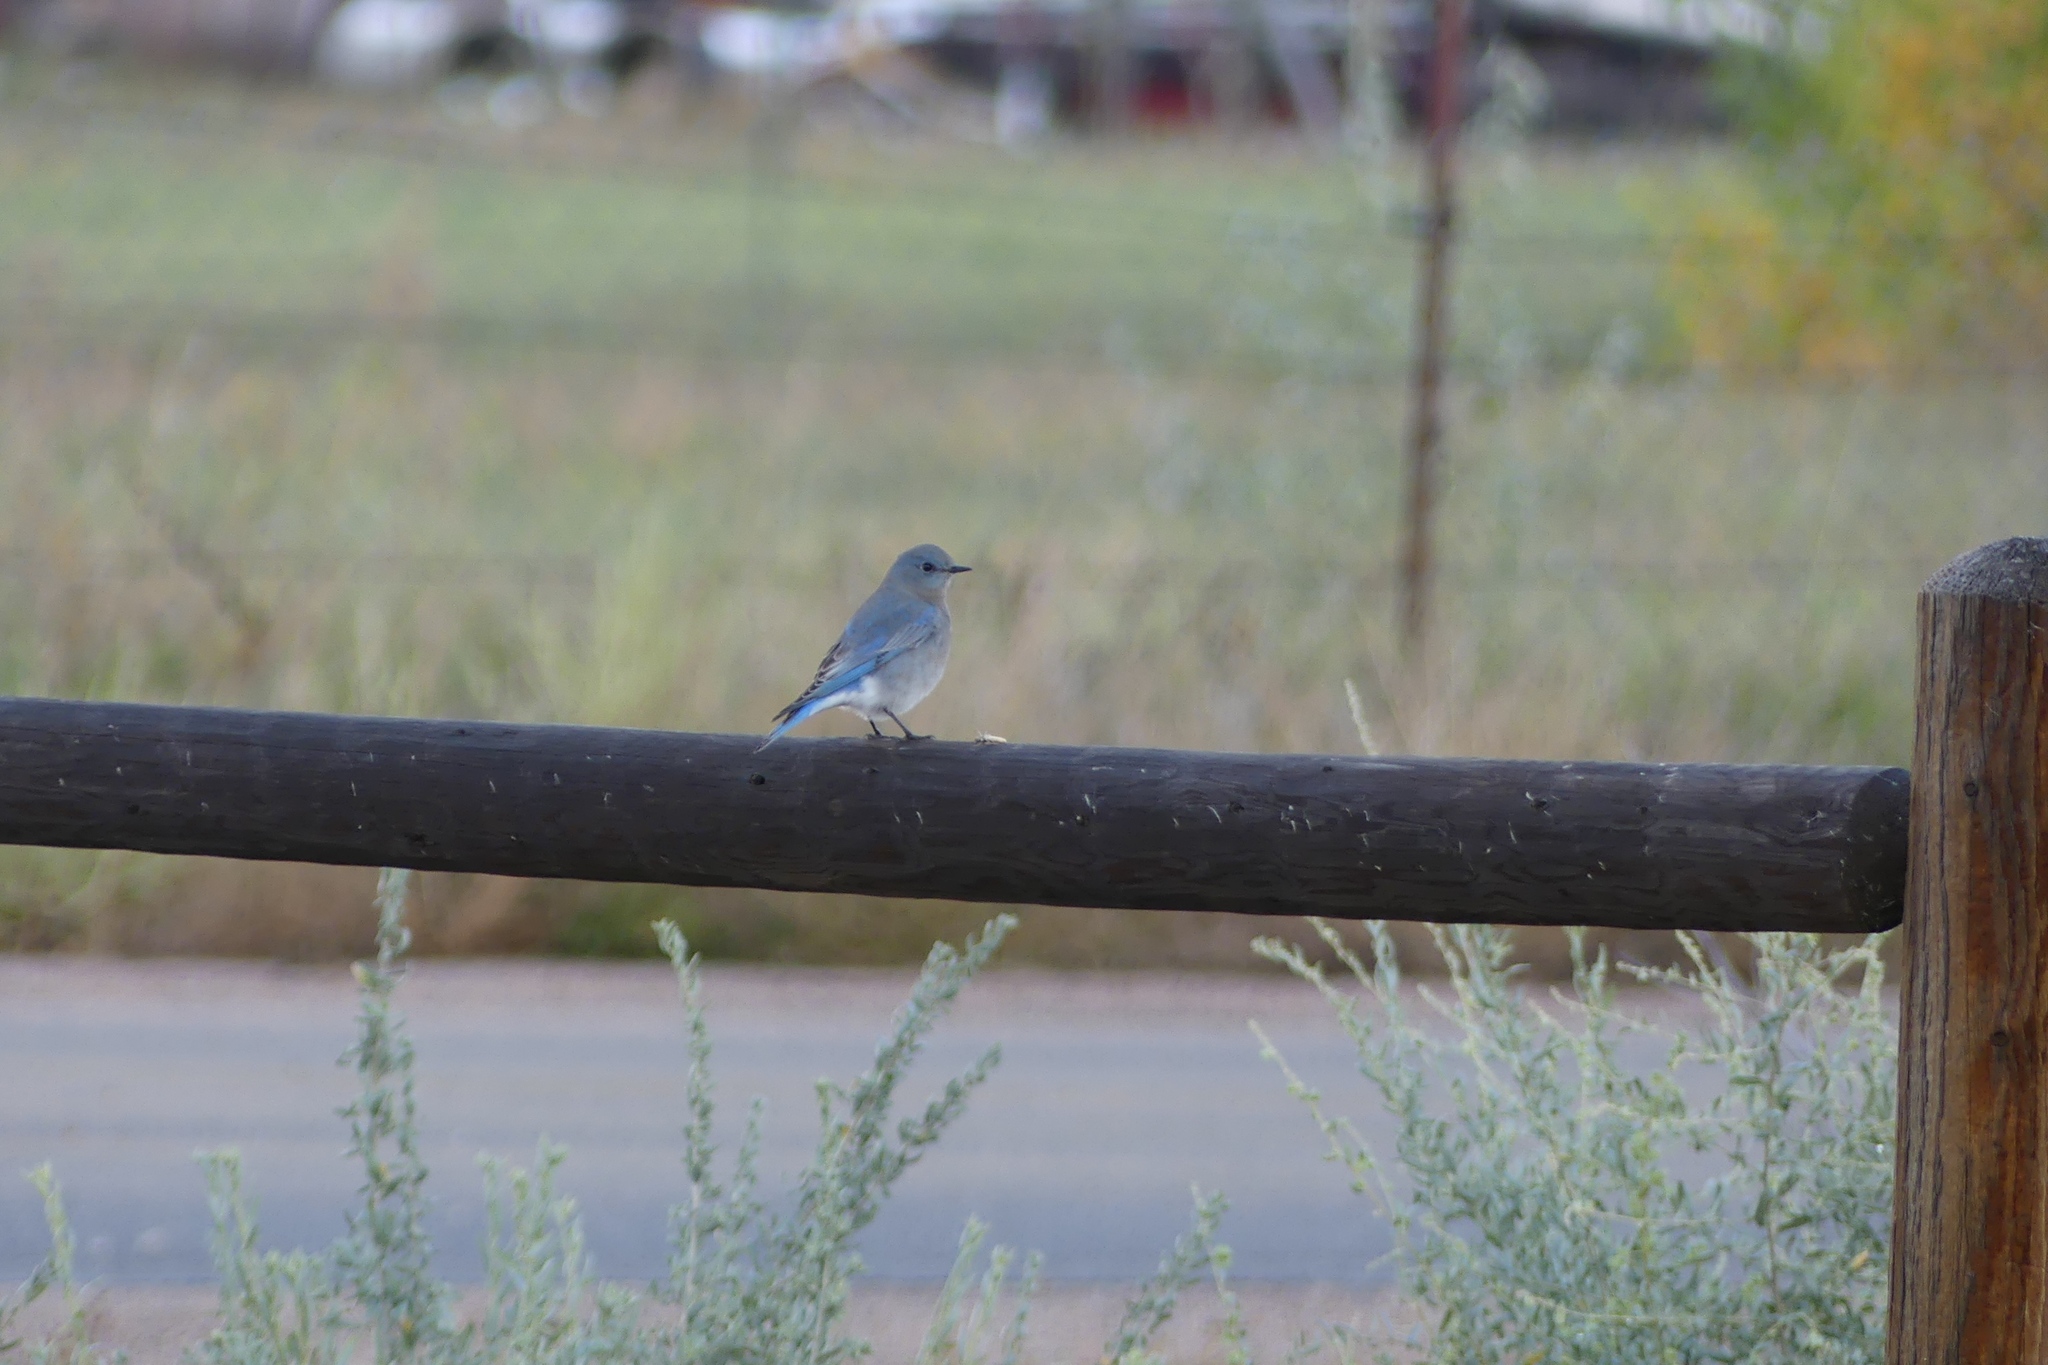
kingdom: Animalia
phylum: Chordata
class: Aves
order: Passeriformes
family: Turdidae
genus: Sialia
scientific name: Sialia currucoides
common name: Mountain bluebird
